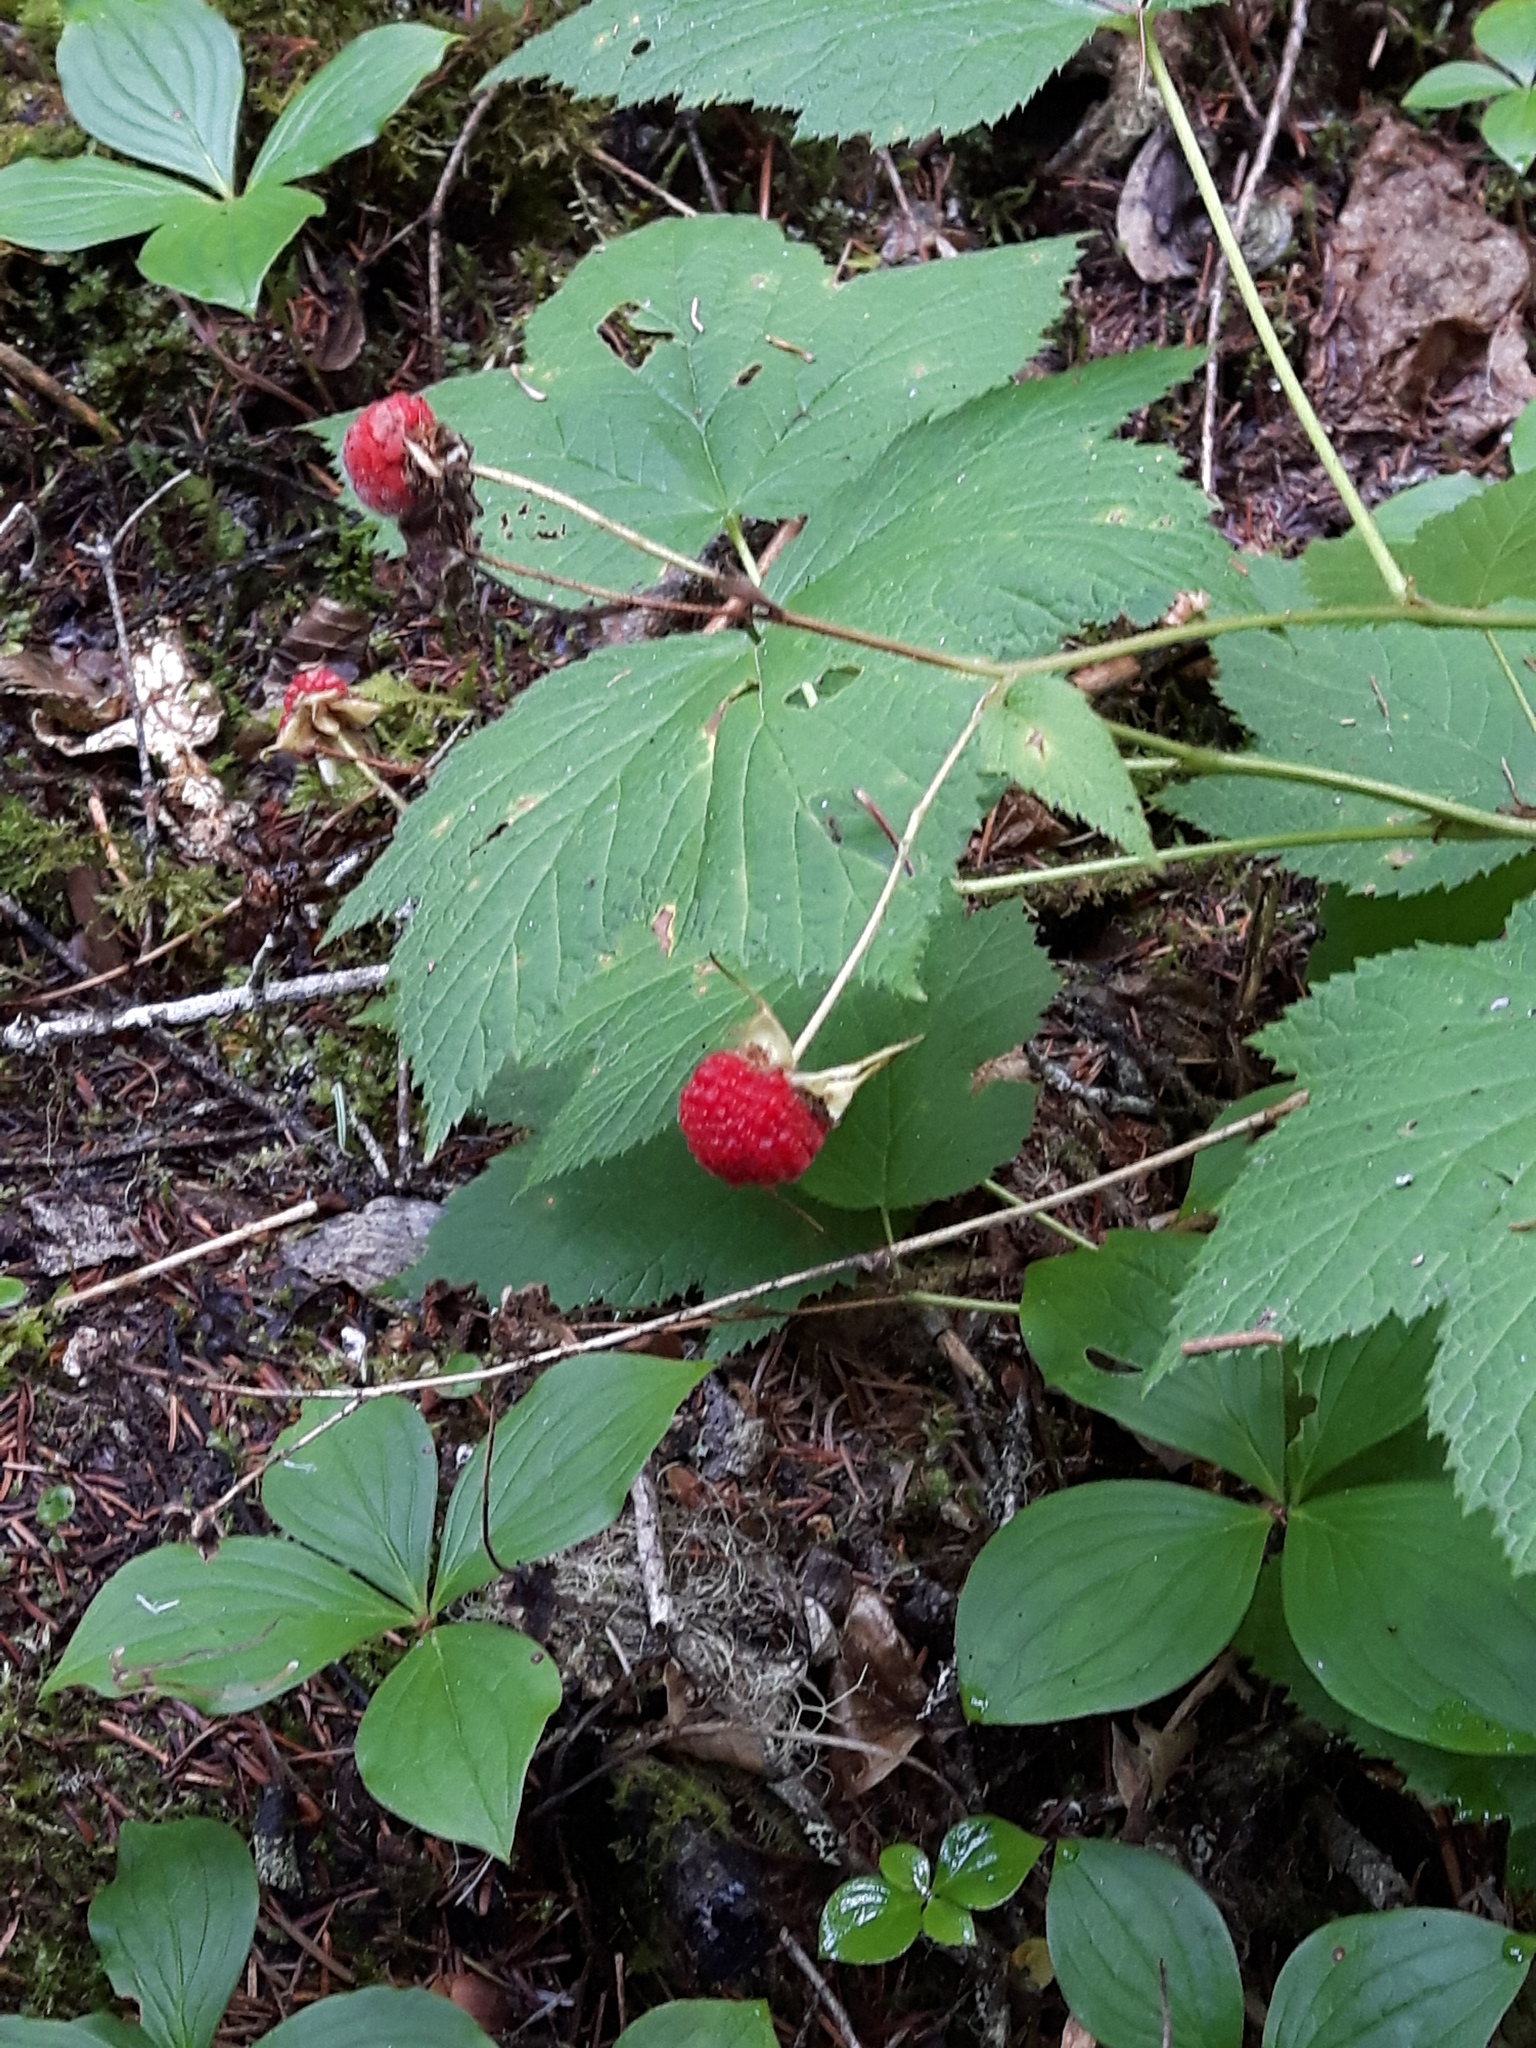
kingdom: Plantae
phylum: Tracheophyta
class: Magnoliopsida
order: Rosales
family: Rosaceae
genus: Rubus
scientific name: Rubus parviflorus
